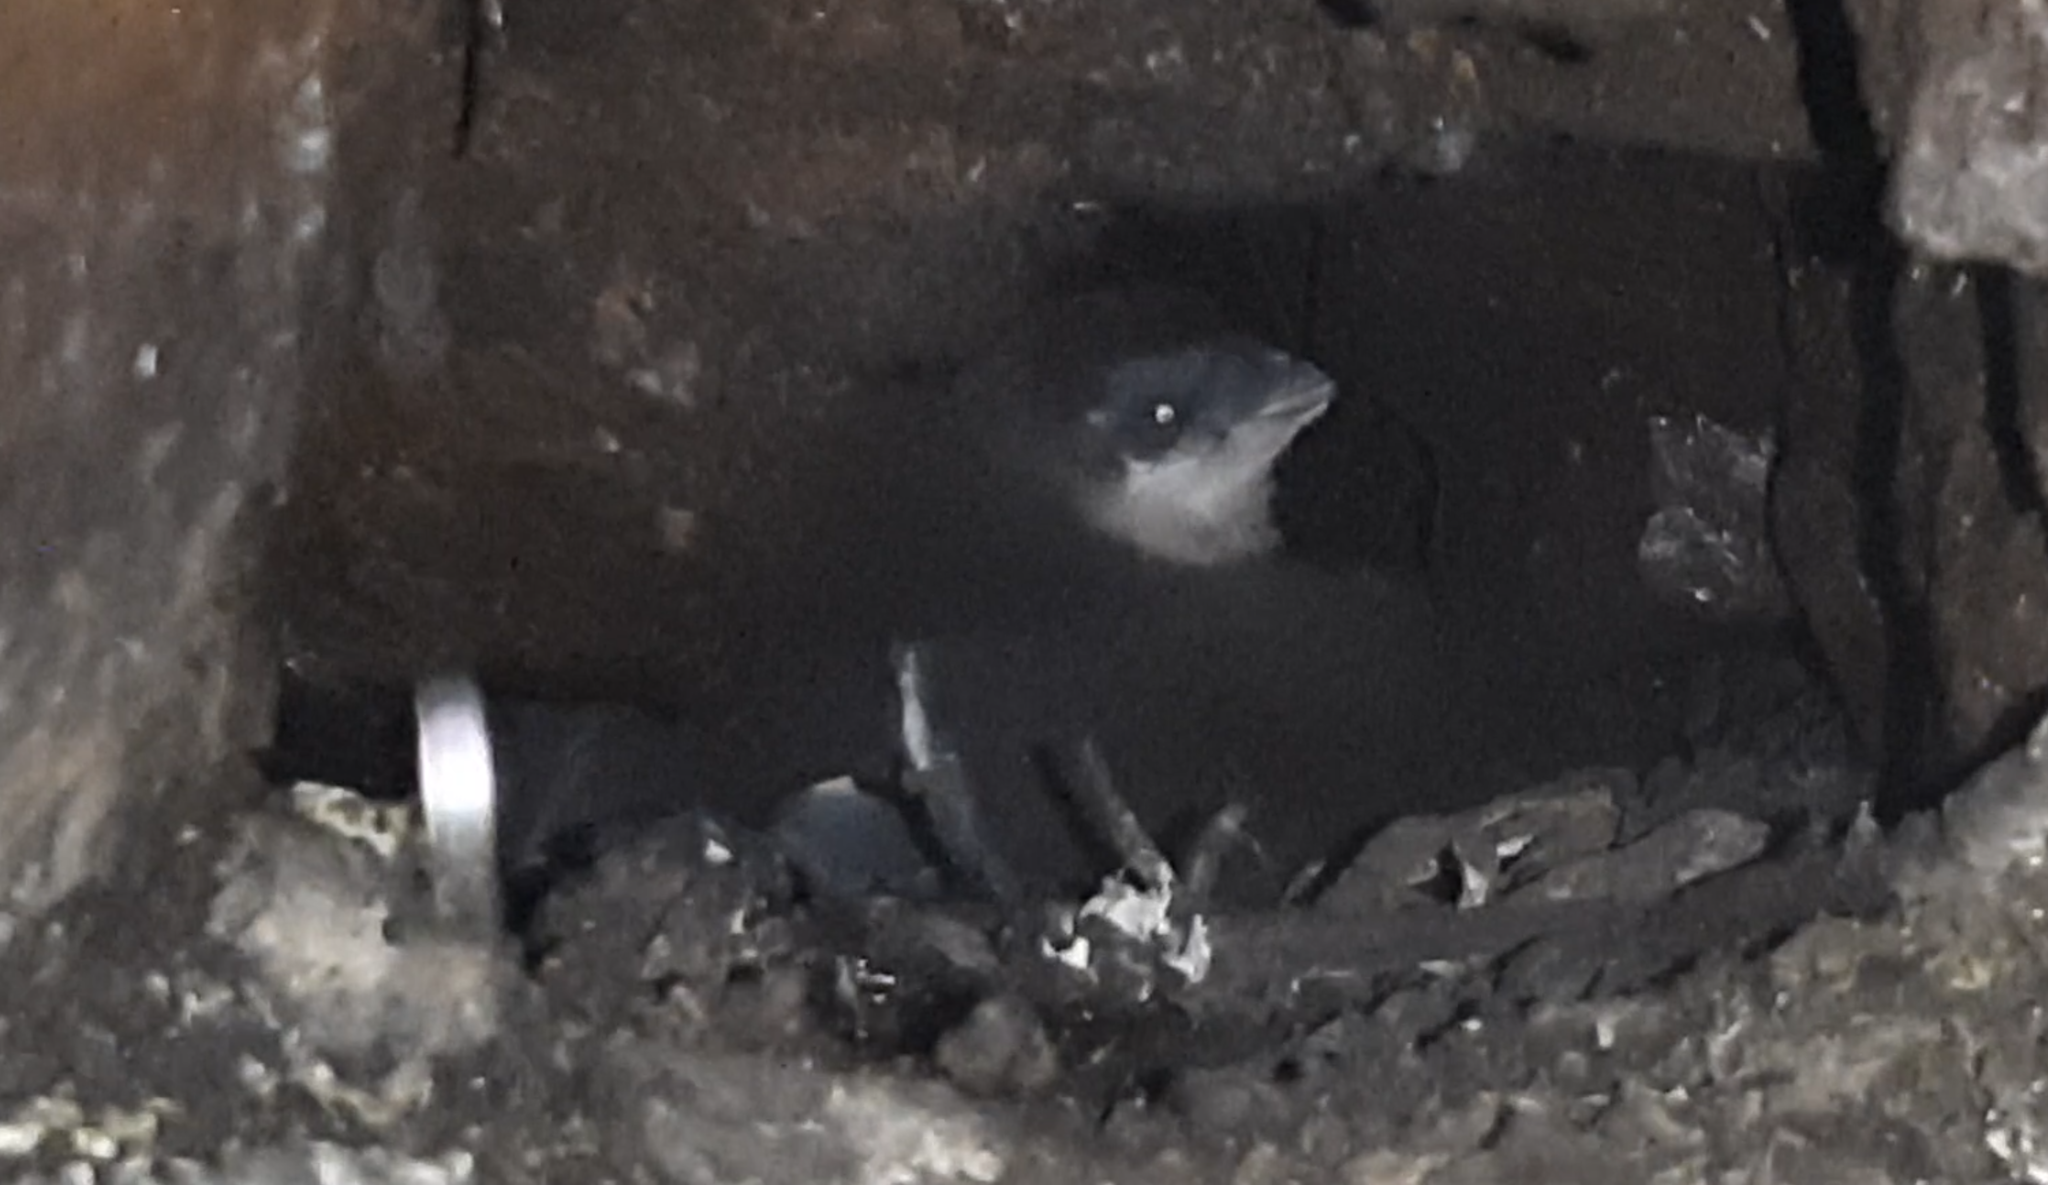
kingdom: Animalia
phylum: Chordata
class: Aves
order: Sphenisciformes
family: Spheniscidae
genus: Eudyptula
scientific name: Eudyptula minor
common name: Little penguin
